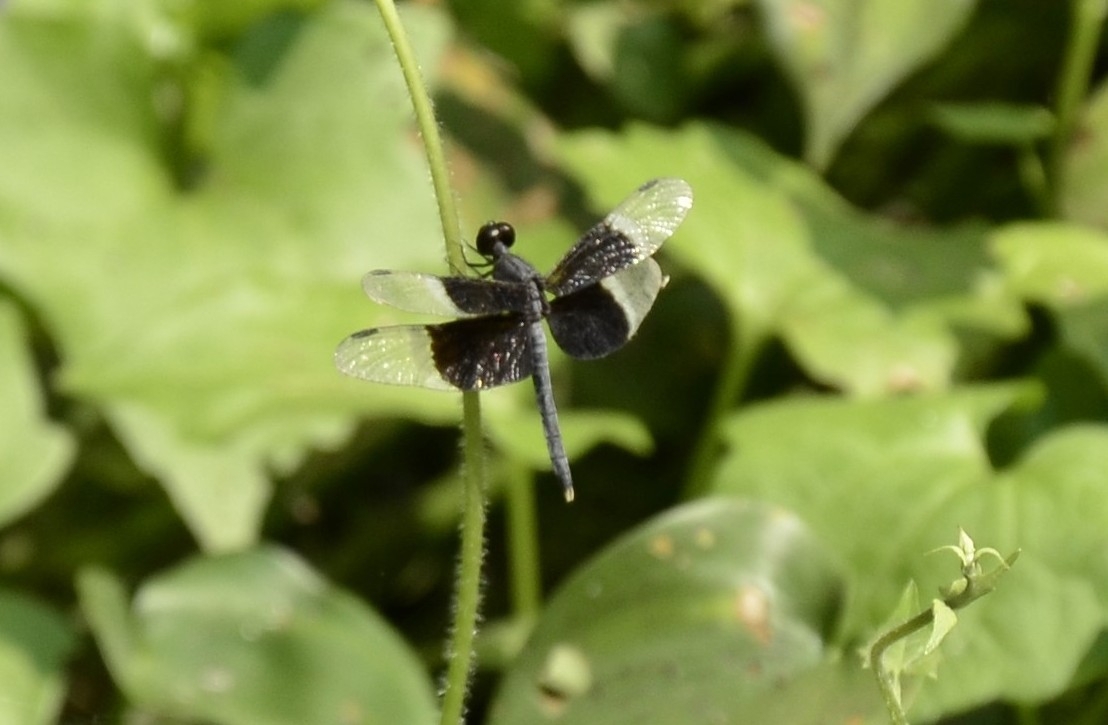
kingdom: Animalia
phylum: Arthropoda
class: Insecta
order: Odonata
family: Libellulidae
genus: Neurothemis
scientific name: Neurothemis tullia
